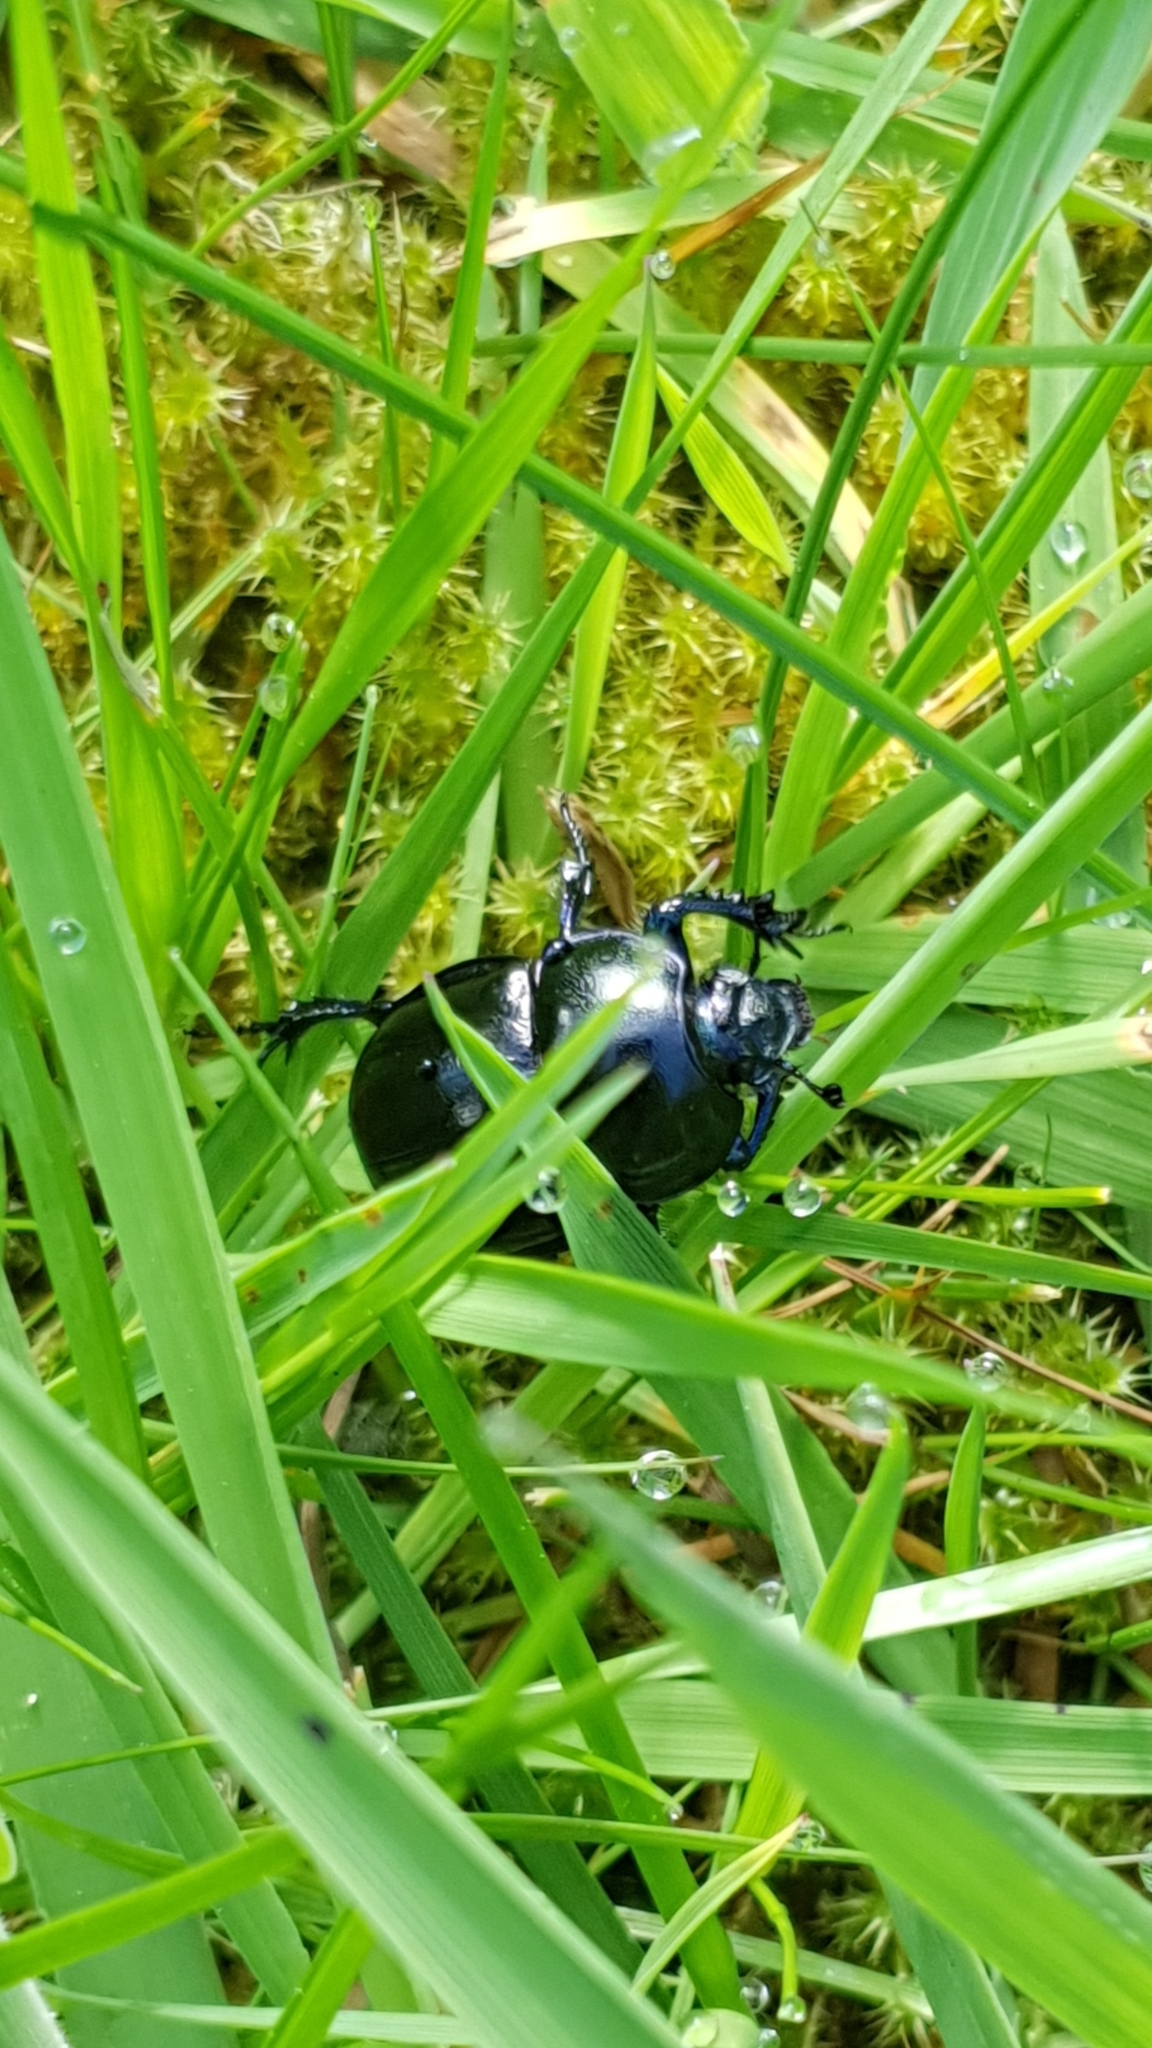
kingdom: Animalia
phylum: Arthropoda
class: Insecta
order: Coleoptera
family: Geotrupidae
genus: Trypocopris
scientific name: Trypocopris vernalis
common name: Spring dumbledor
